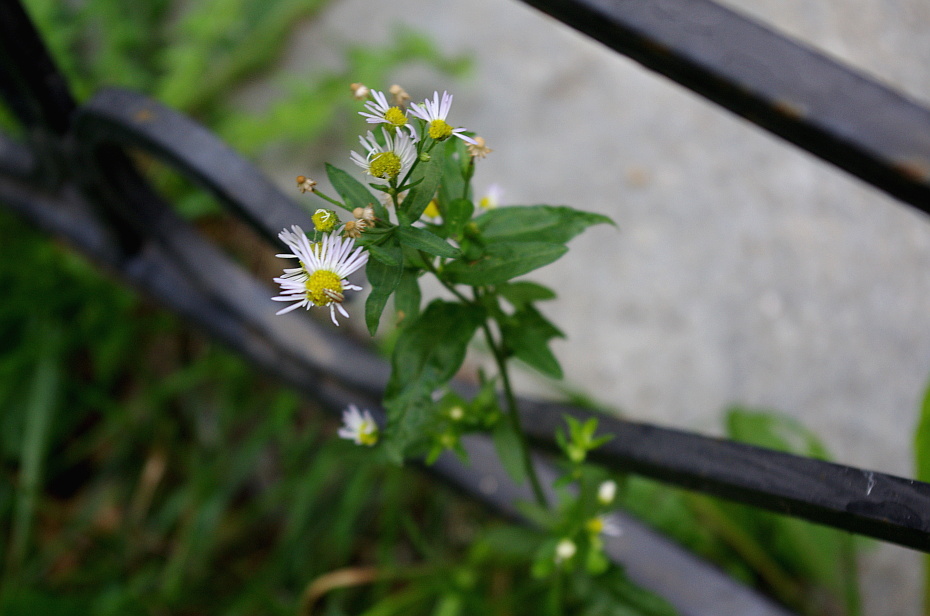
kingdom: Plantae
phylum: Tracheophyta
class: Magnoliopsida
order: Asterales
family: Asteraceae
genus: Erigeron
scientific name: Erigeron annuus
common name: Tall fleabane
